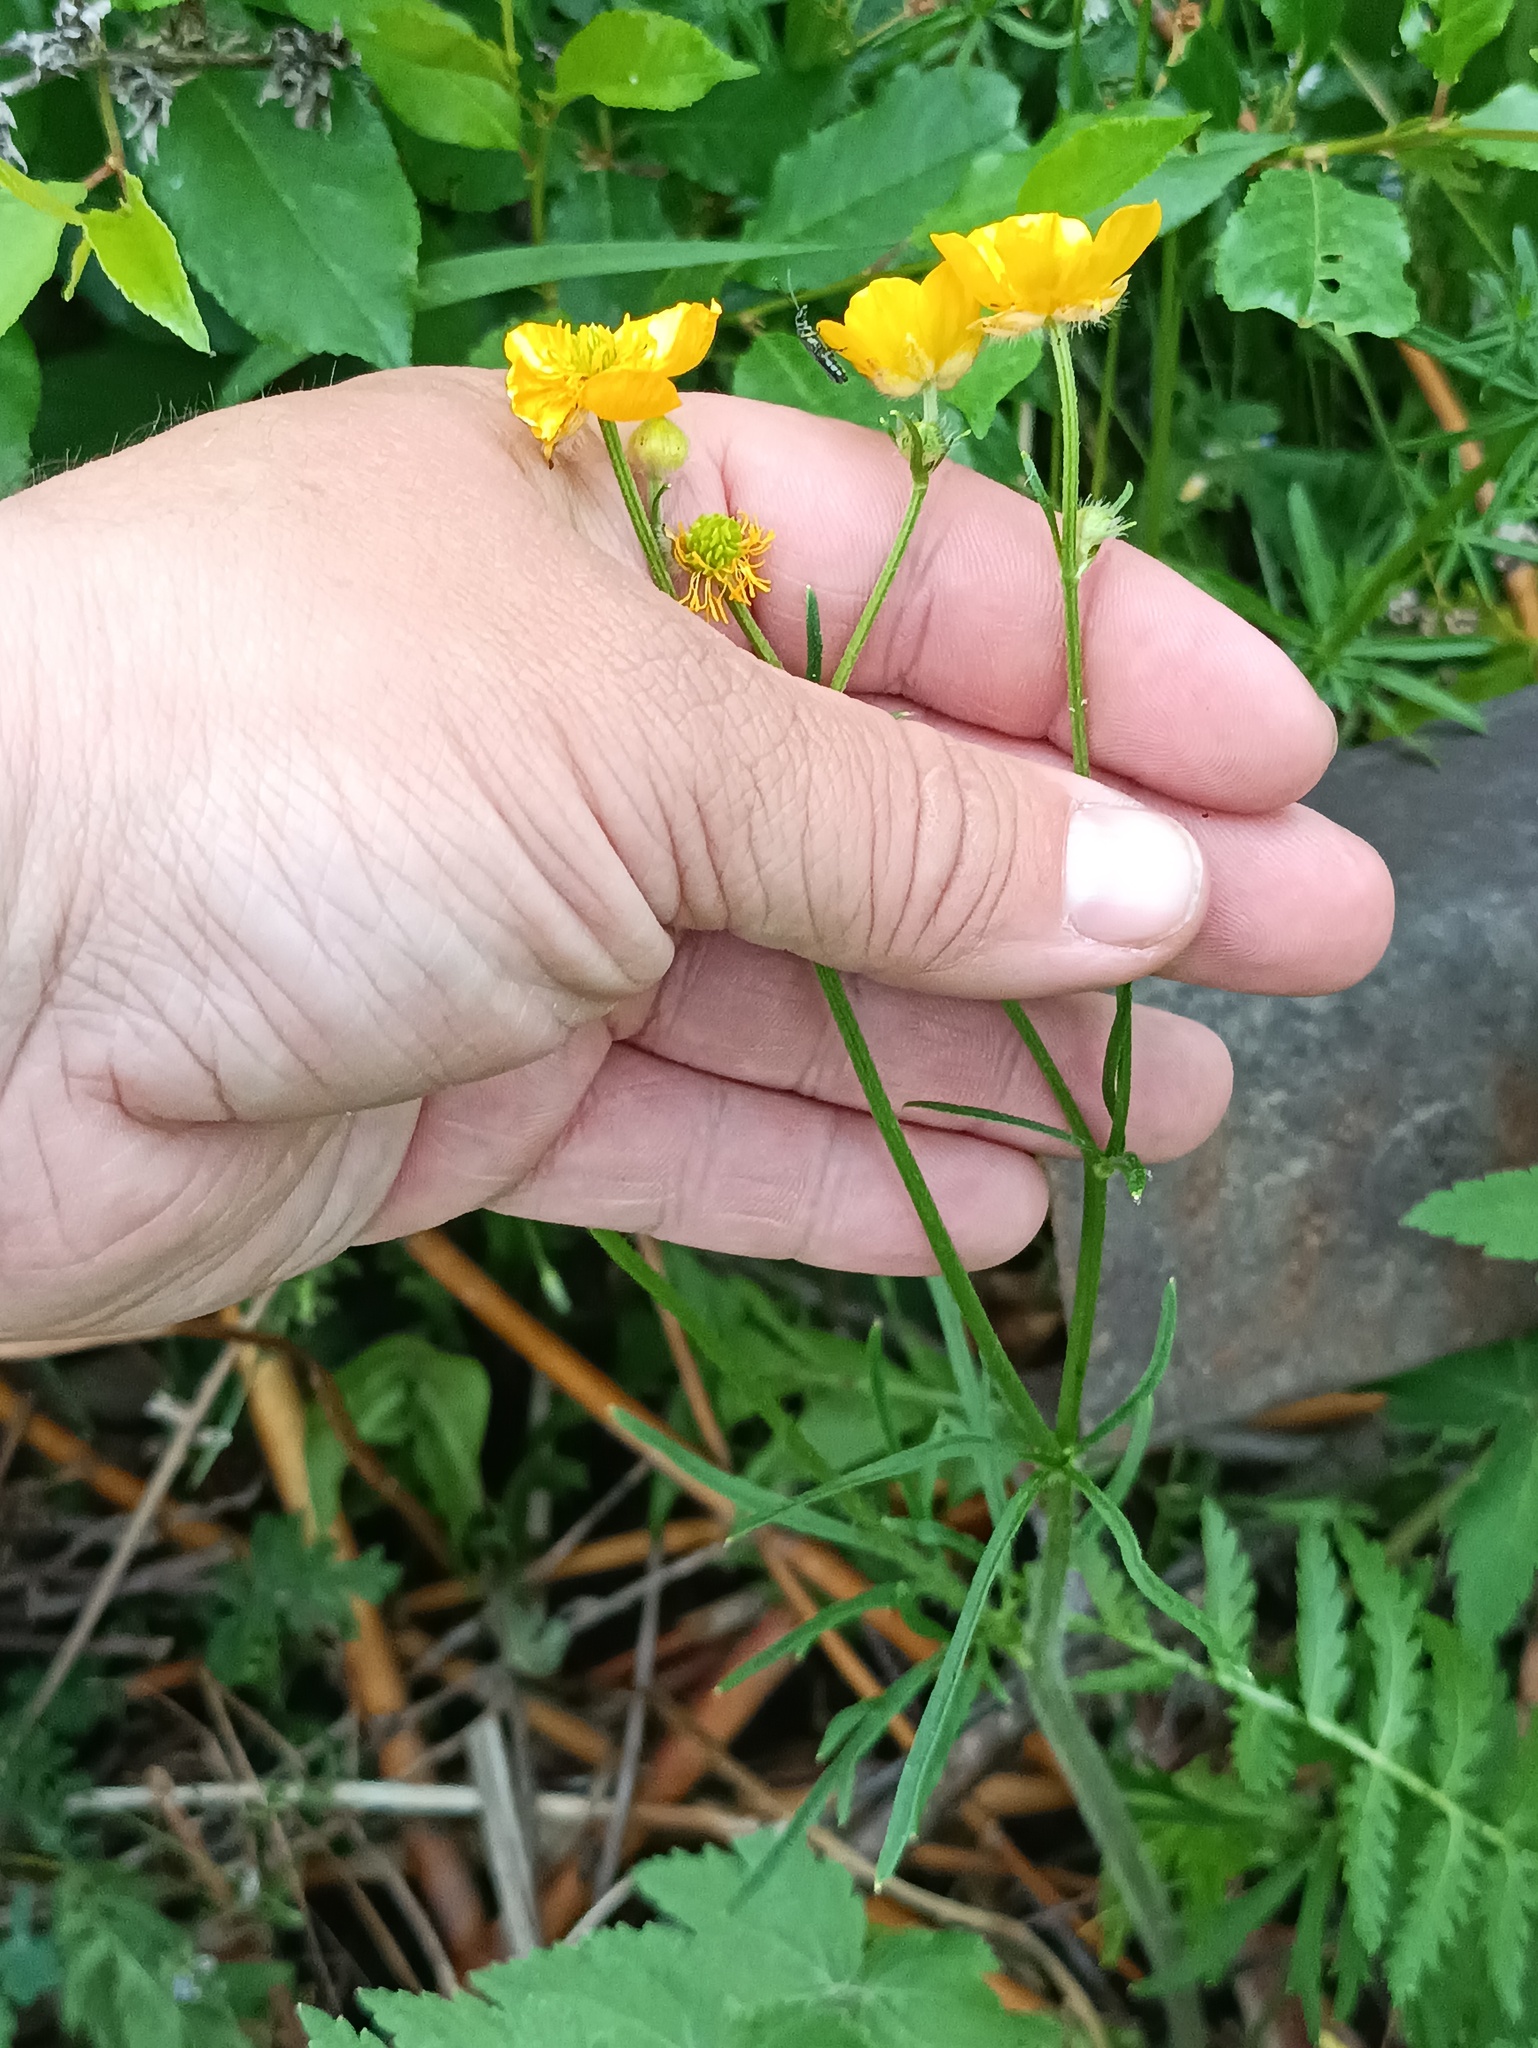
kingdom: Plantae
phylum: Tracheophyta
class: Magnoliopsida
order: Ranunculales
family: Ranunculaceae
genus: Ranunculus
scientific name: Ranunculus polyanthemos
